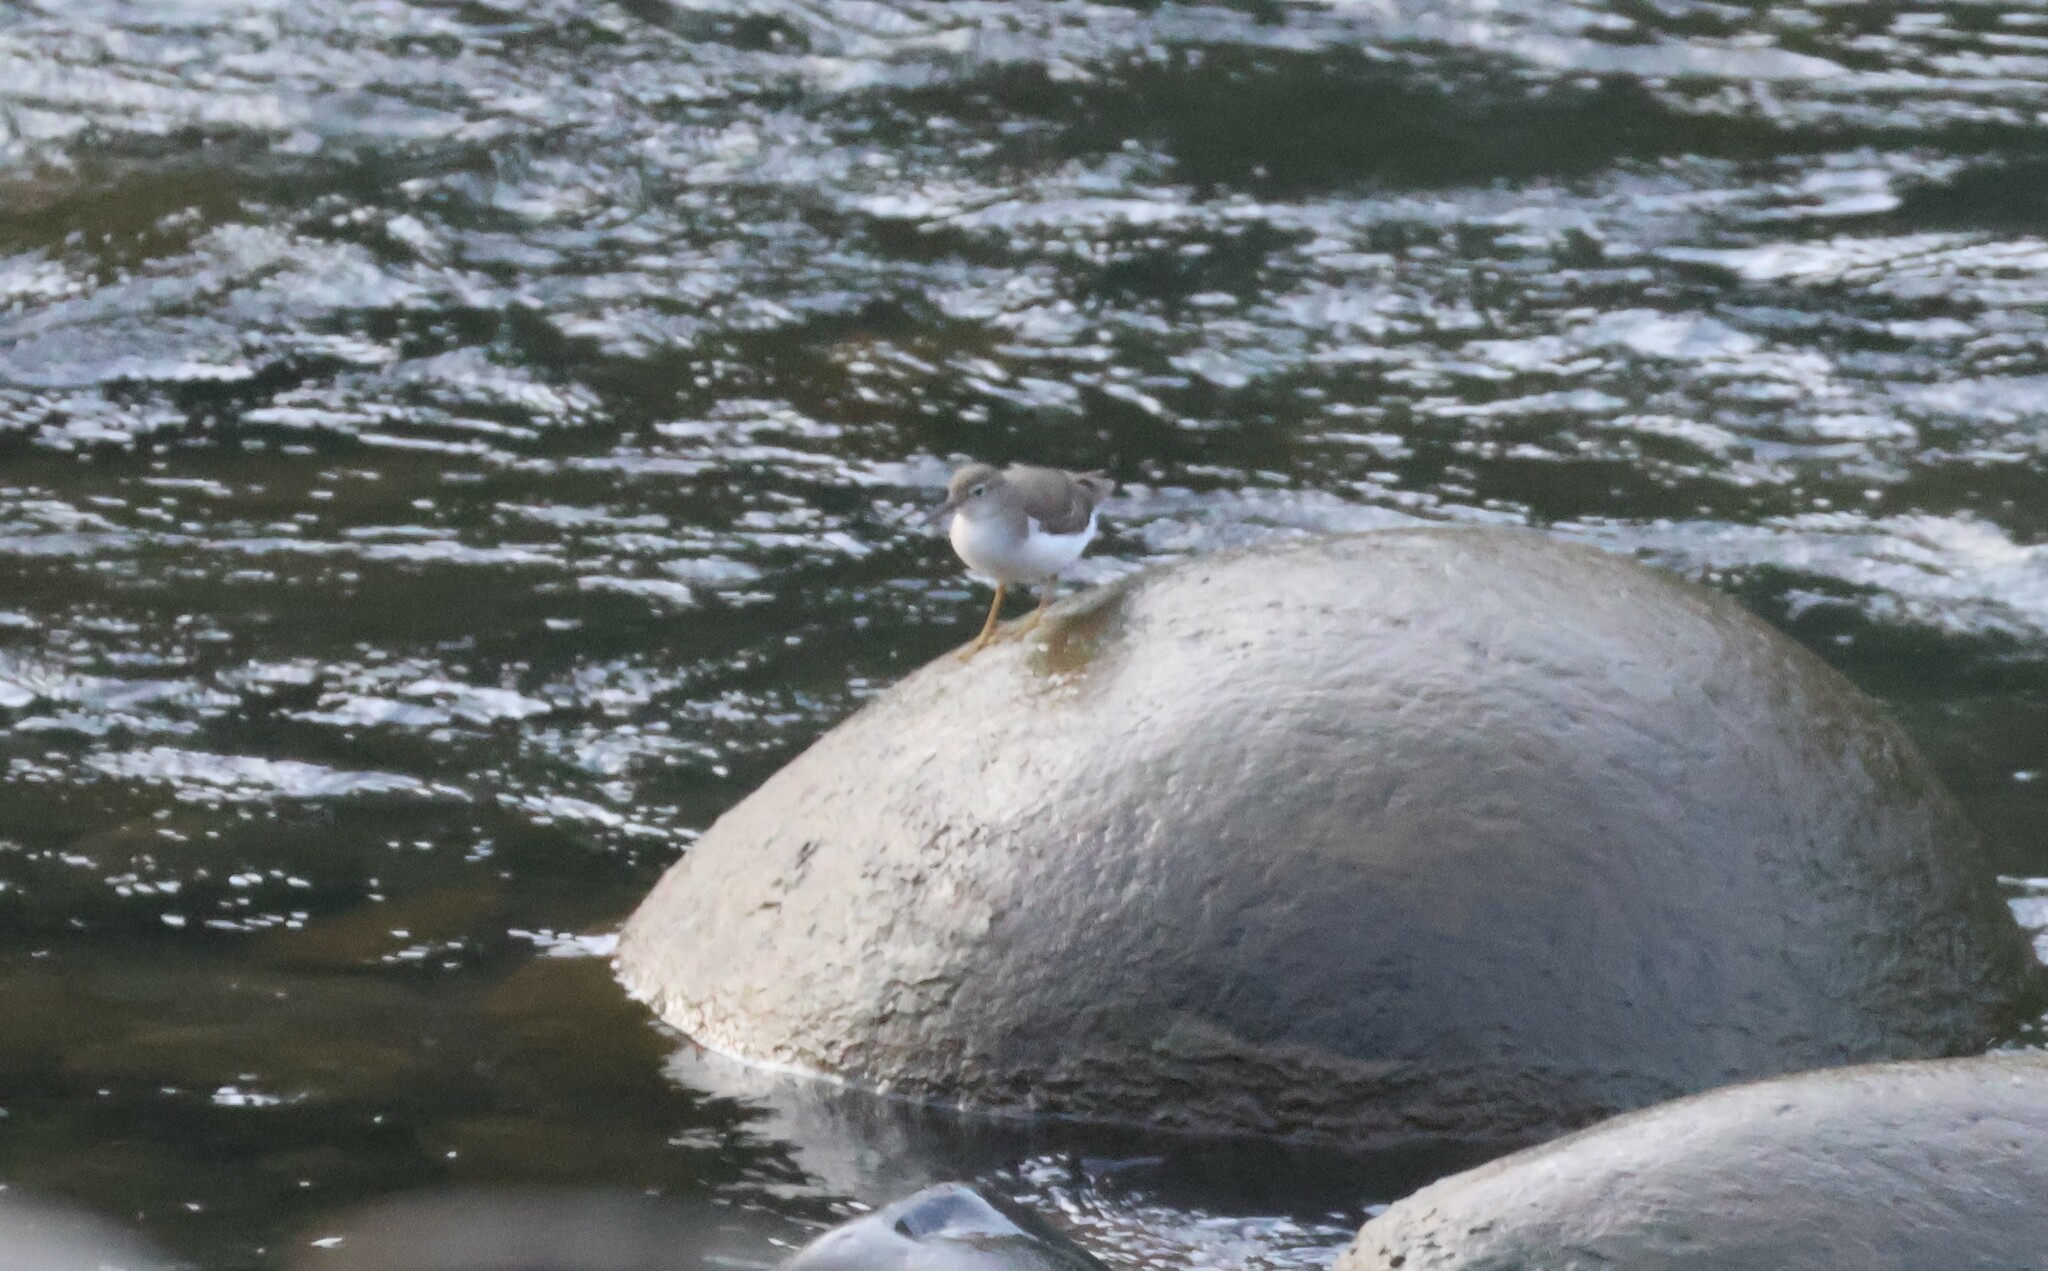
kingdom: Animalia
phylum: Chordata
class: Aves
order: Charadriiformes
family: Scolopacidae
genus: Actitis
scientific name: Actitis macularius
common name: Spotted sandpiper
